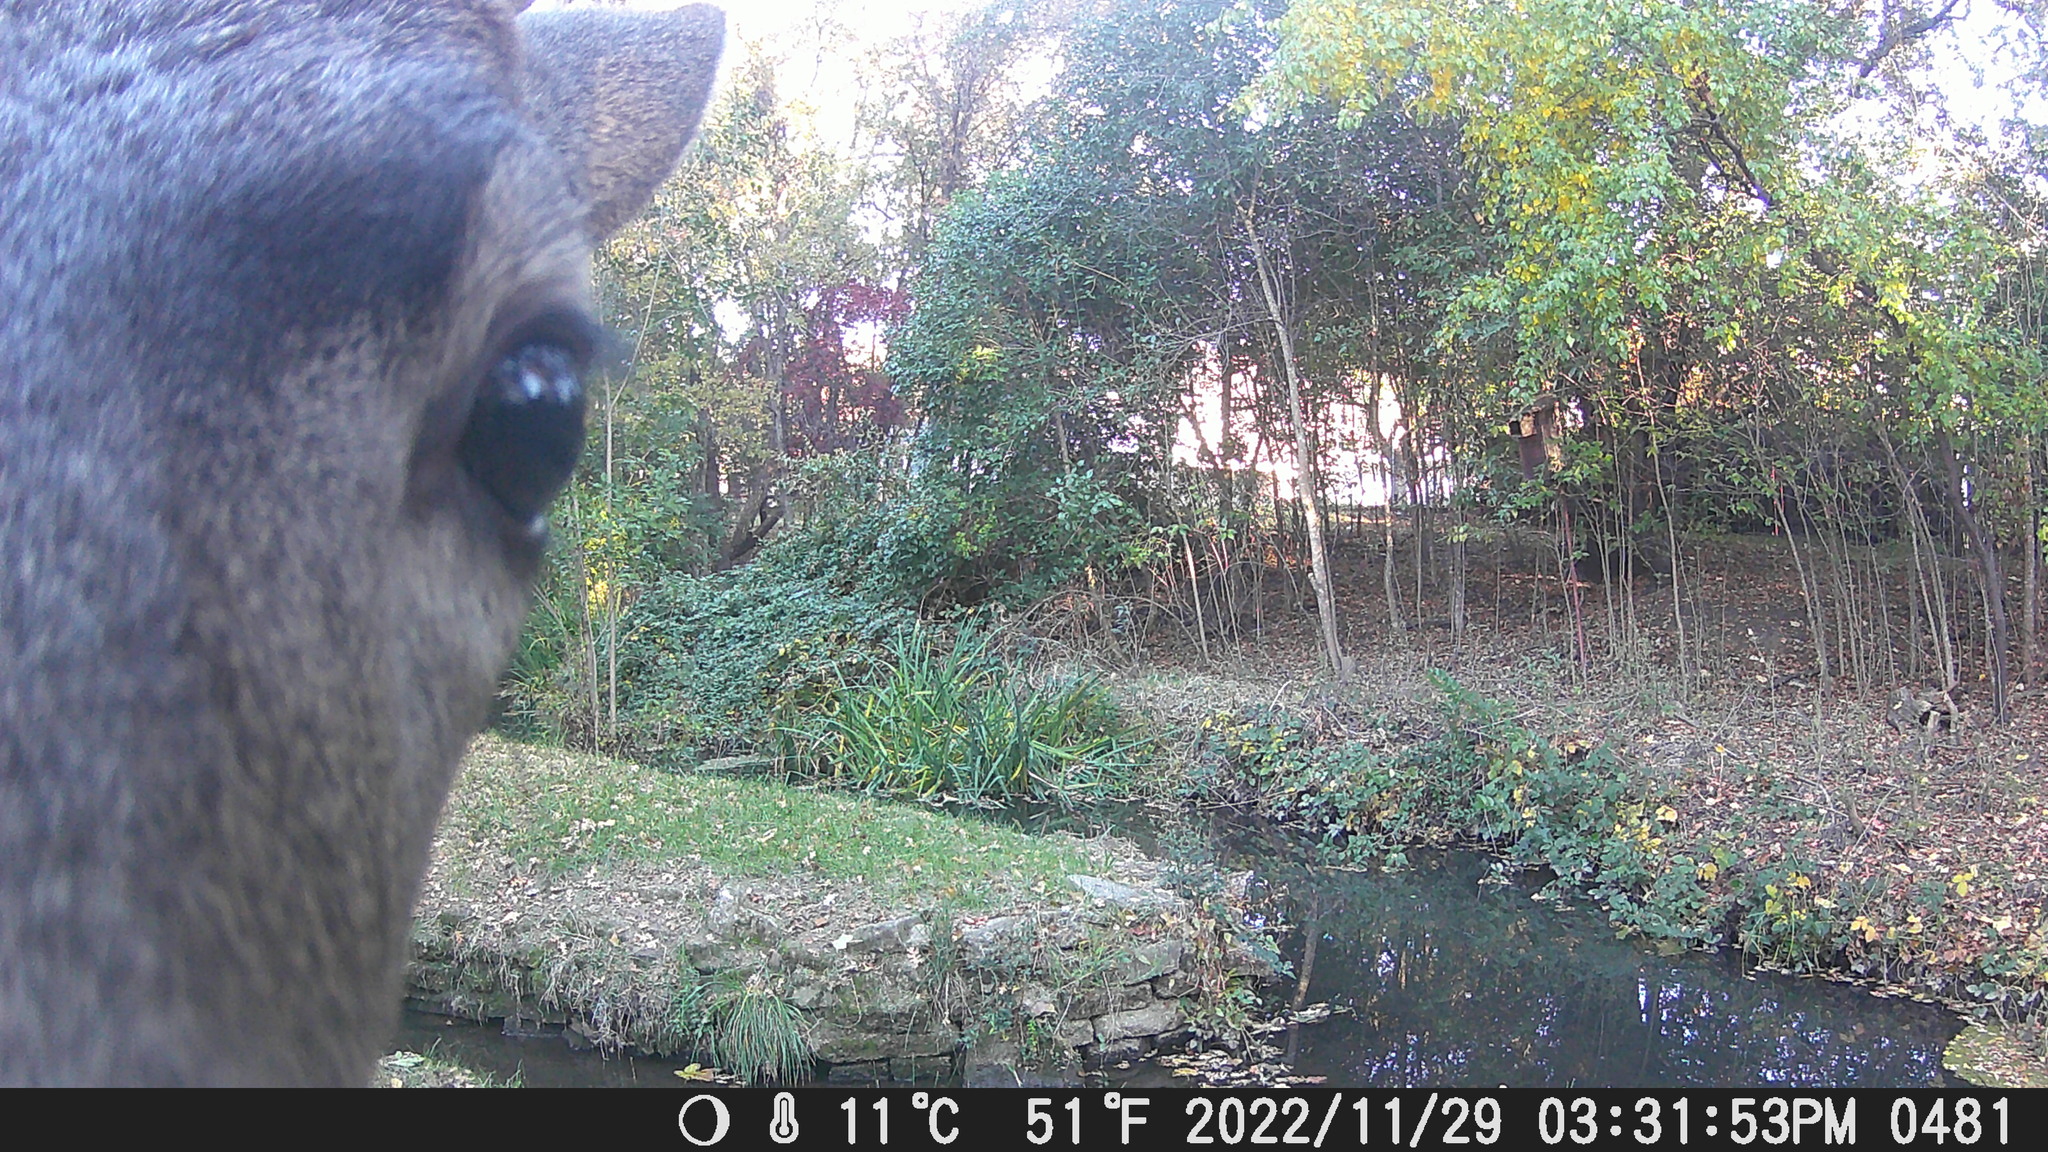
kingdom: Animalia
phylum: Chordata
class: Mammalia
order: Artiodactyla
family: Cervidae
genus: Odocoileus
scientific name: Odocoileus hemionus
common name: Mule deer
